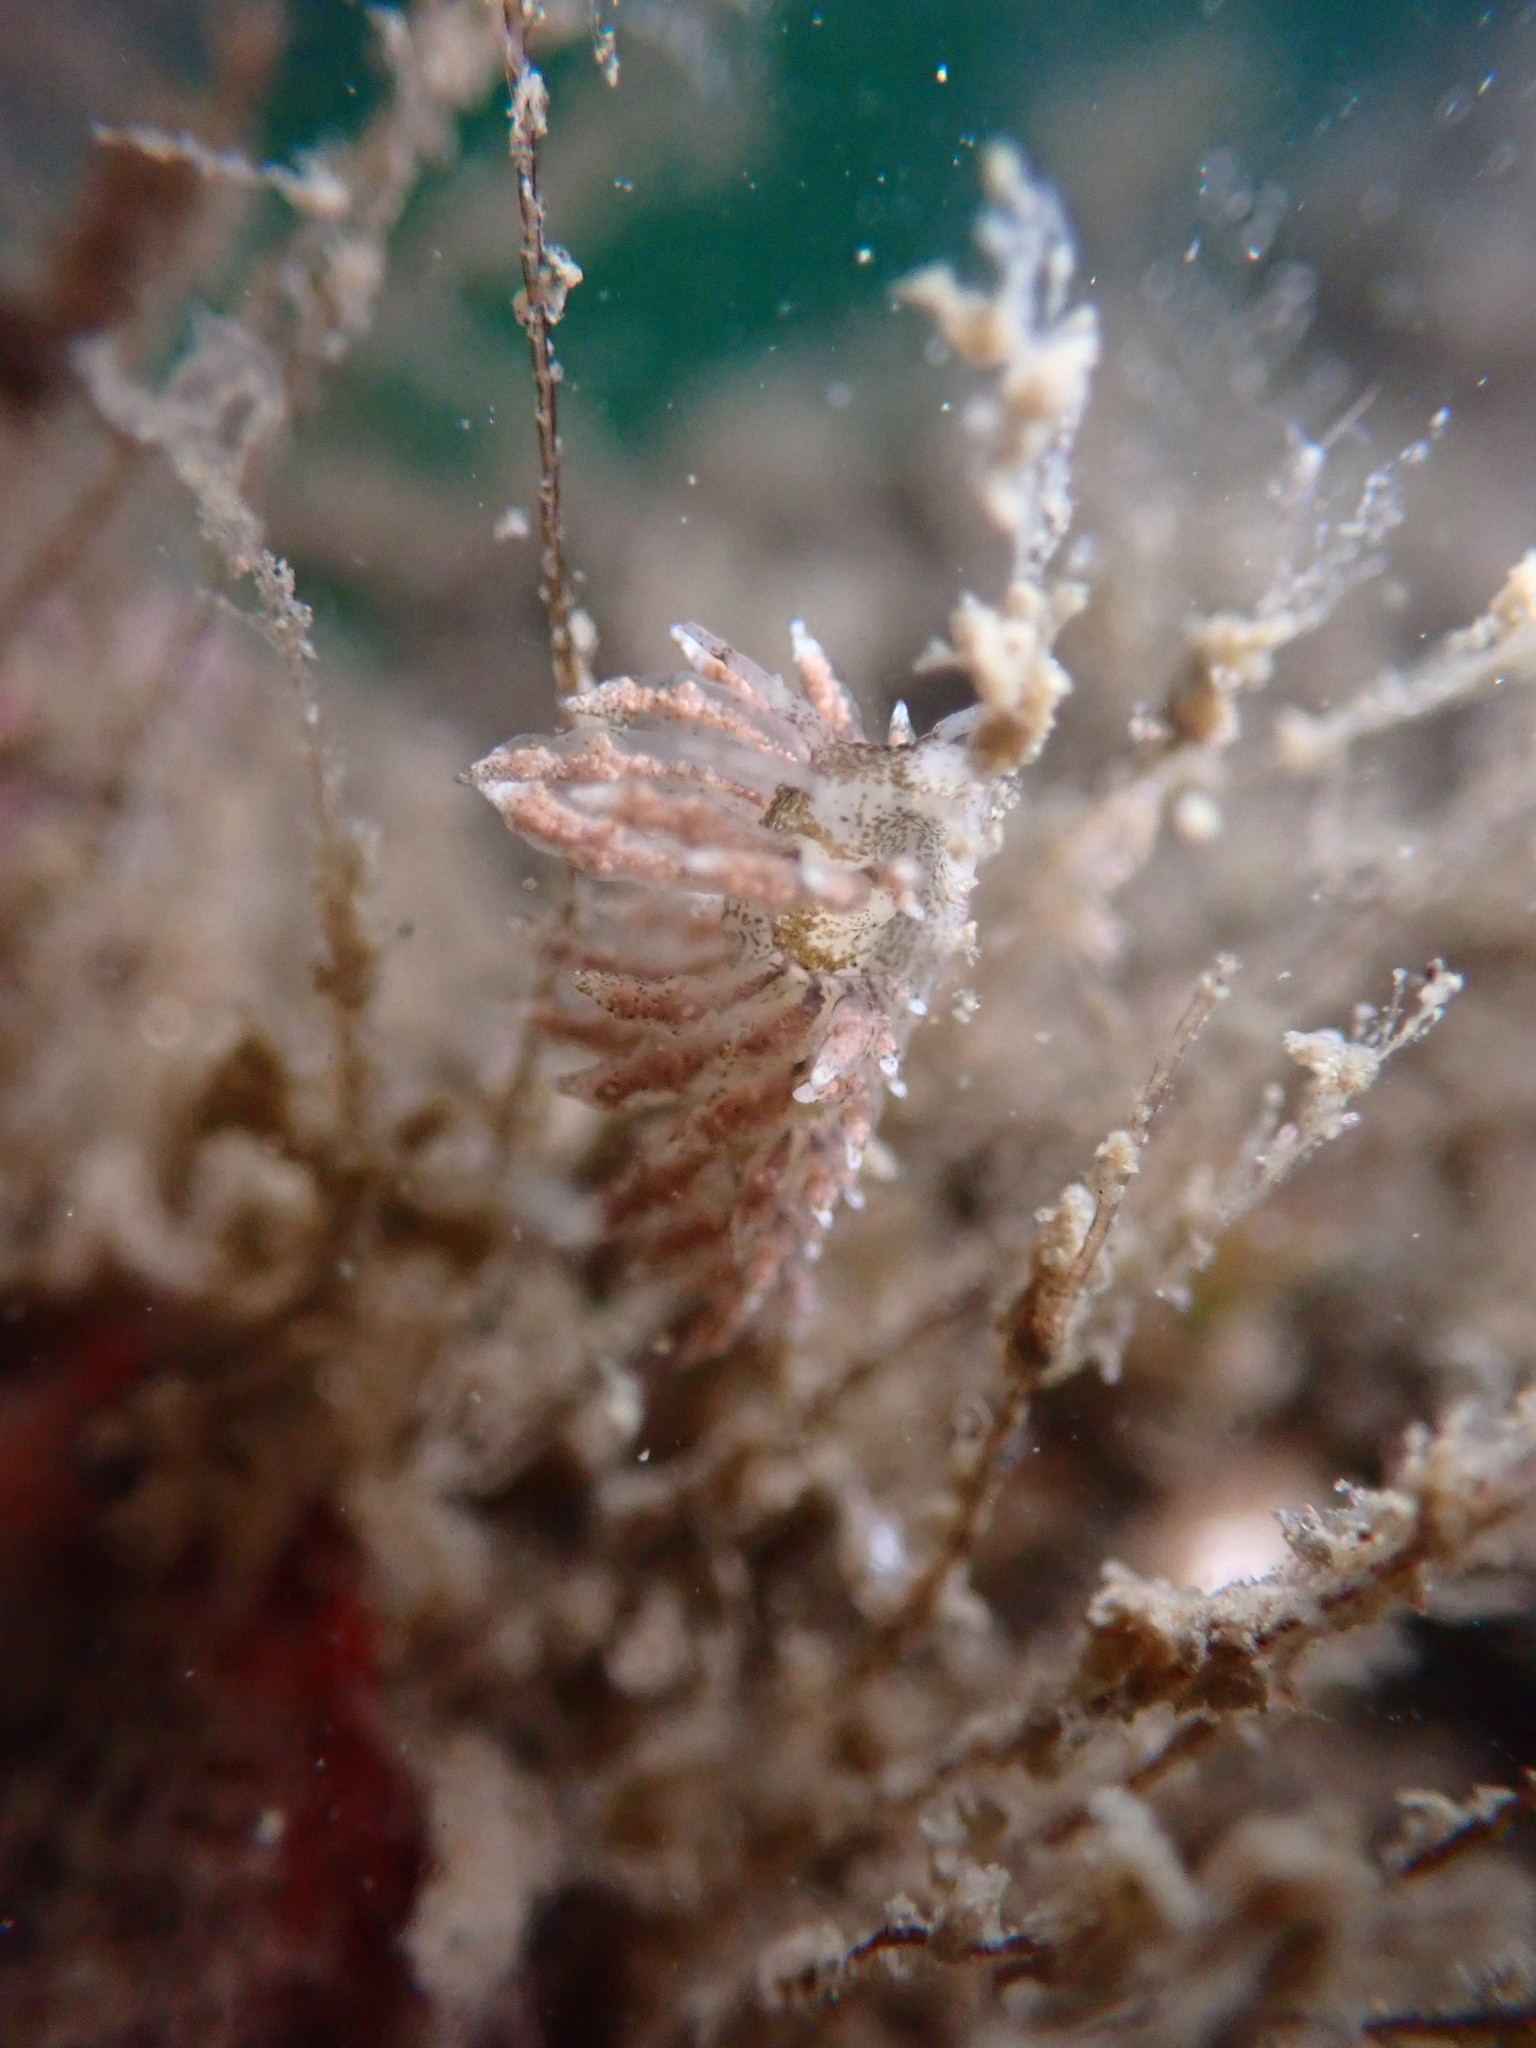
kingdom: Animalia
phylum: Mollusca
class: Gastropoda
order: Nudibranchia
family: Eubranchidae
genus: Eubranchus
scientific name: Eubranchus rustyus
